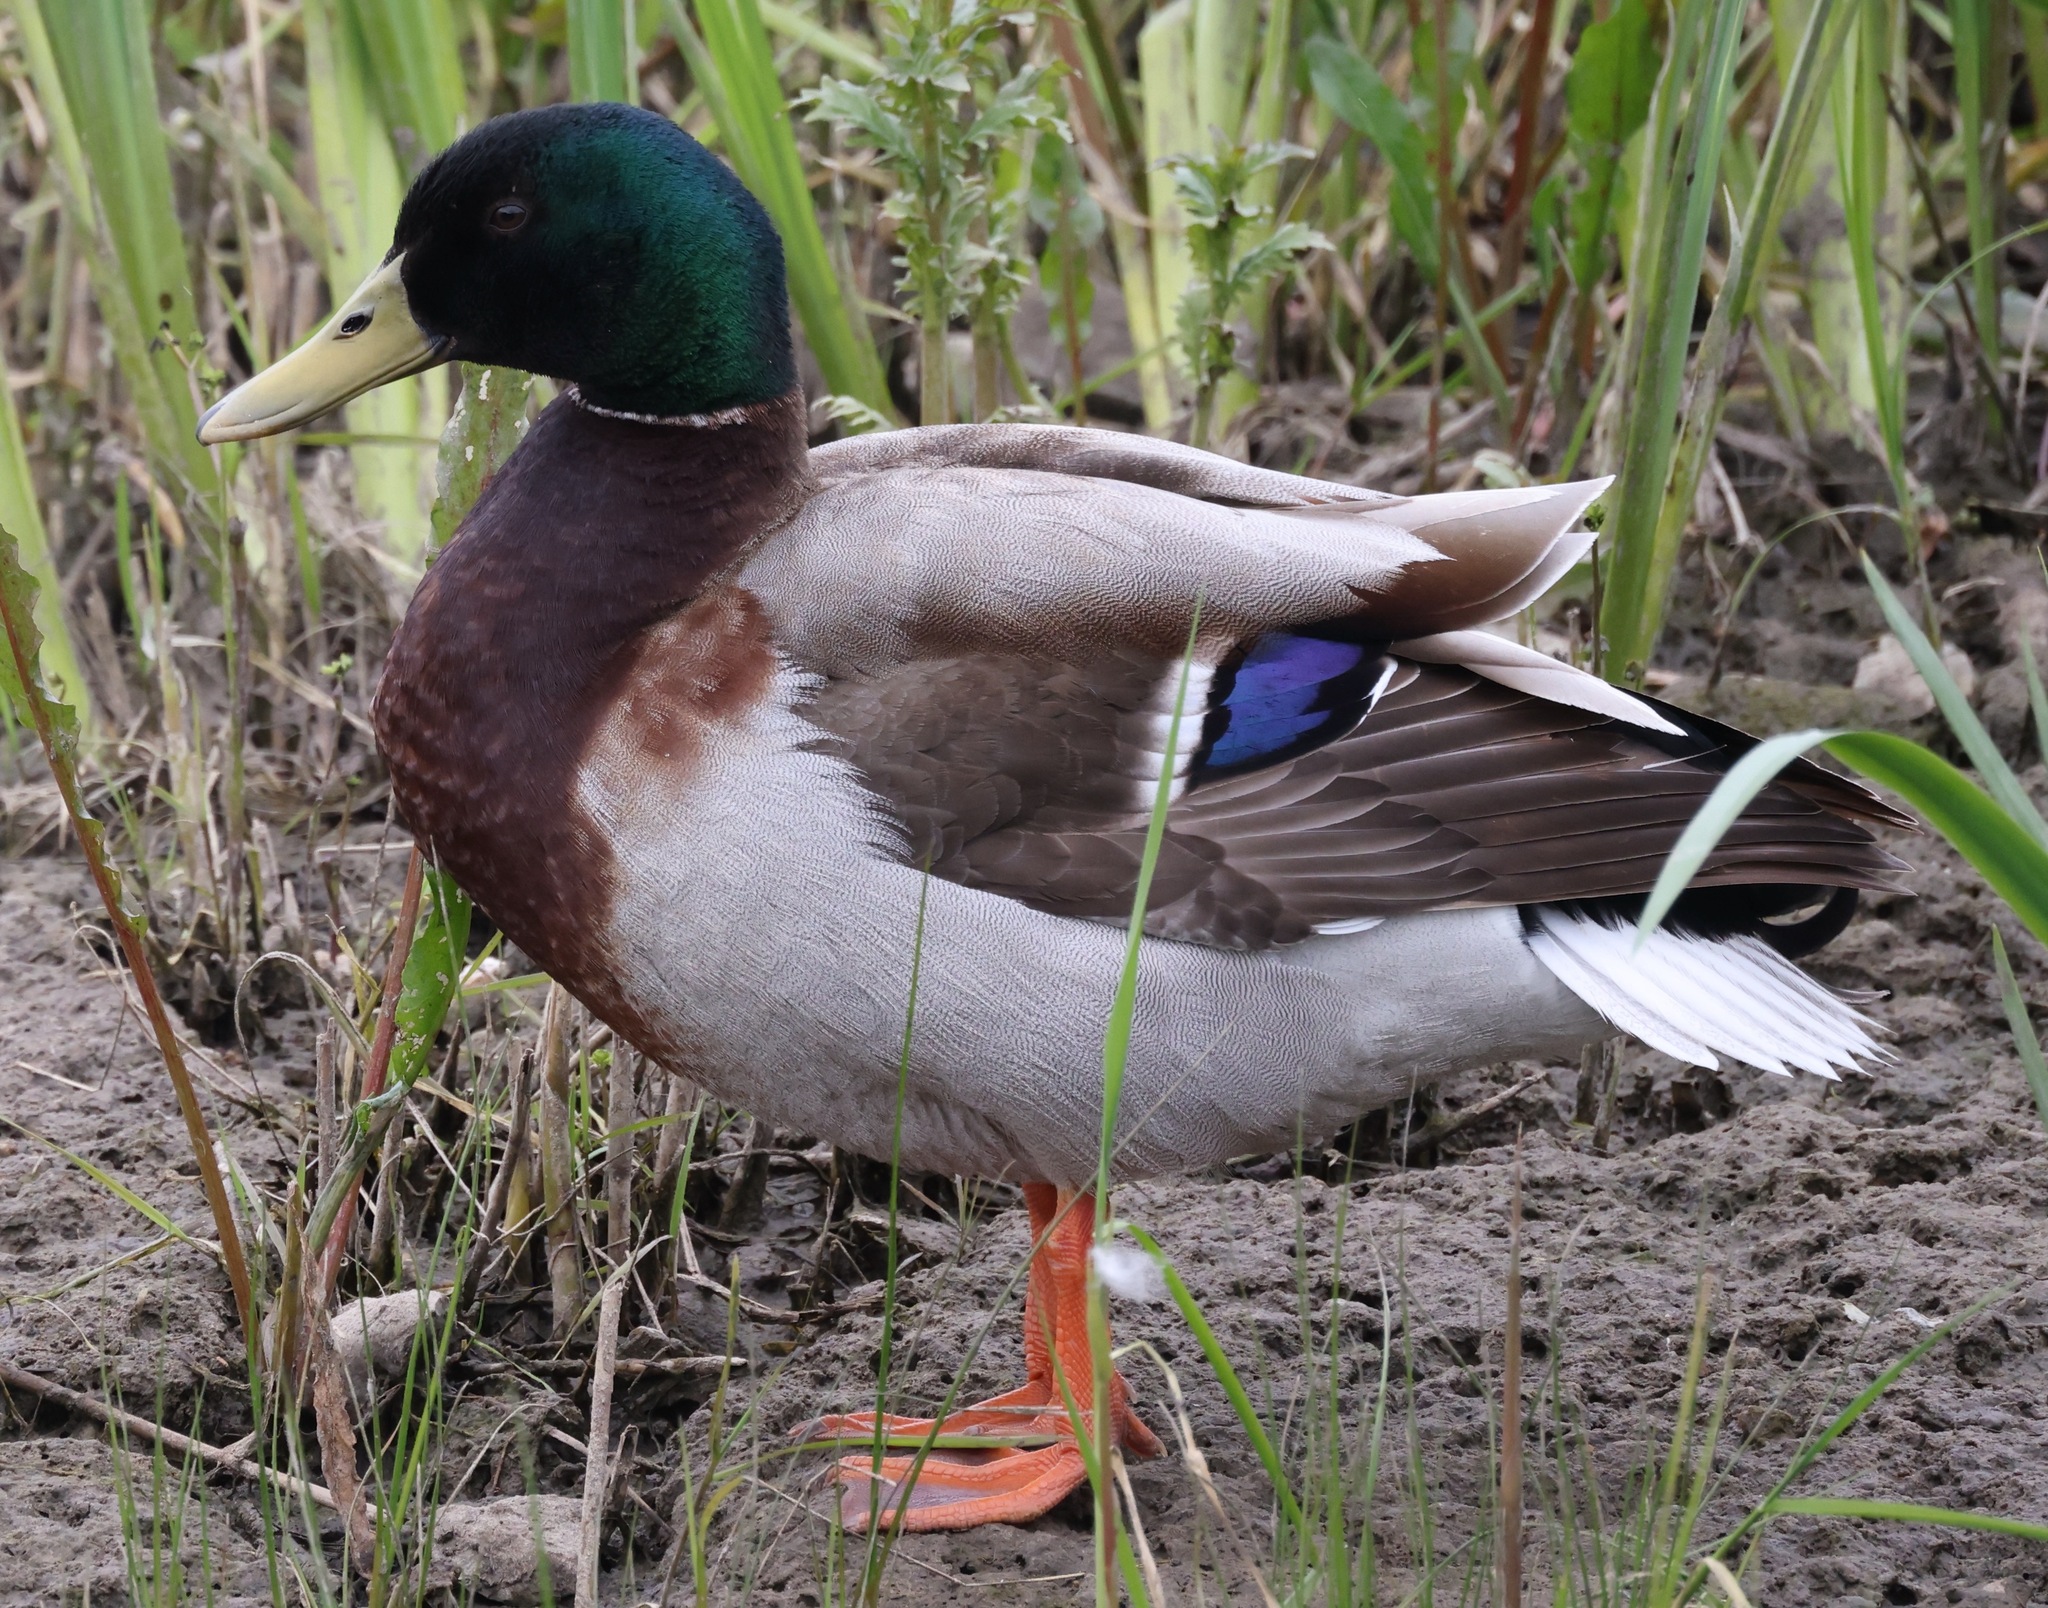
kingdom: Animalia
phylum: Chordata
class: Aves
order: Anseriformes
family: Anatidae
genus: Anas
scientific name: Anas platyrhynchos
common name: Mallard
